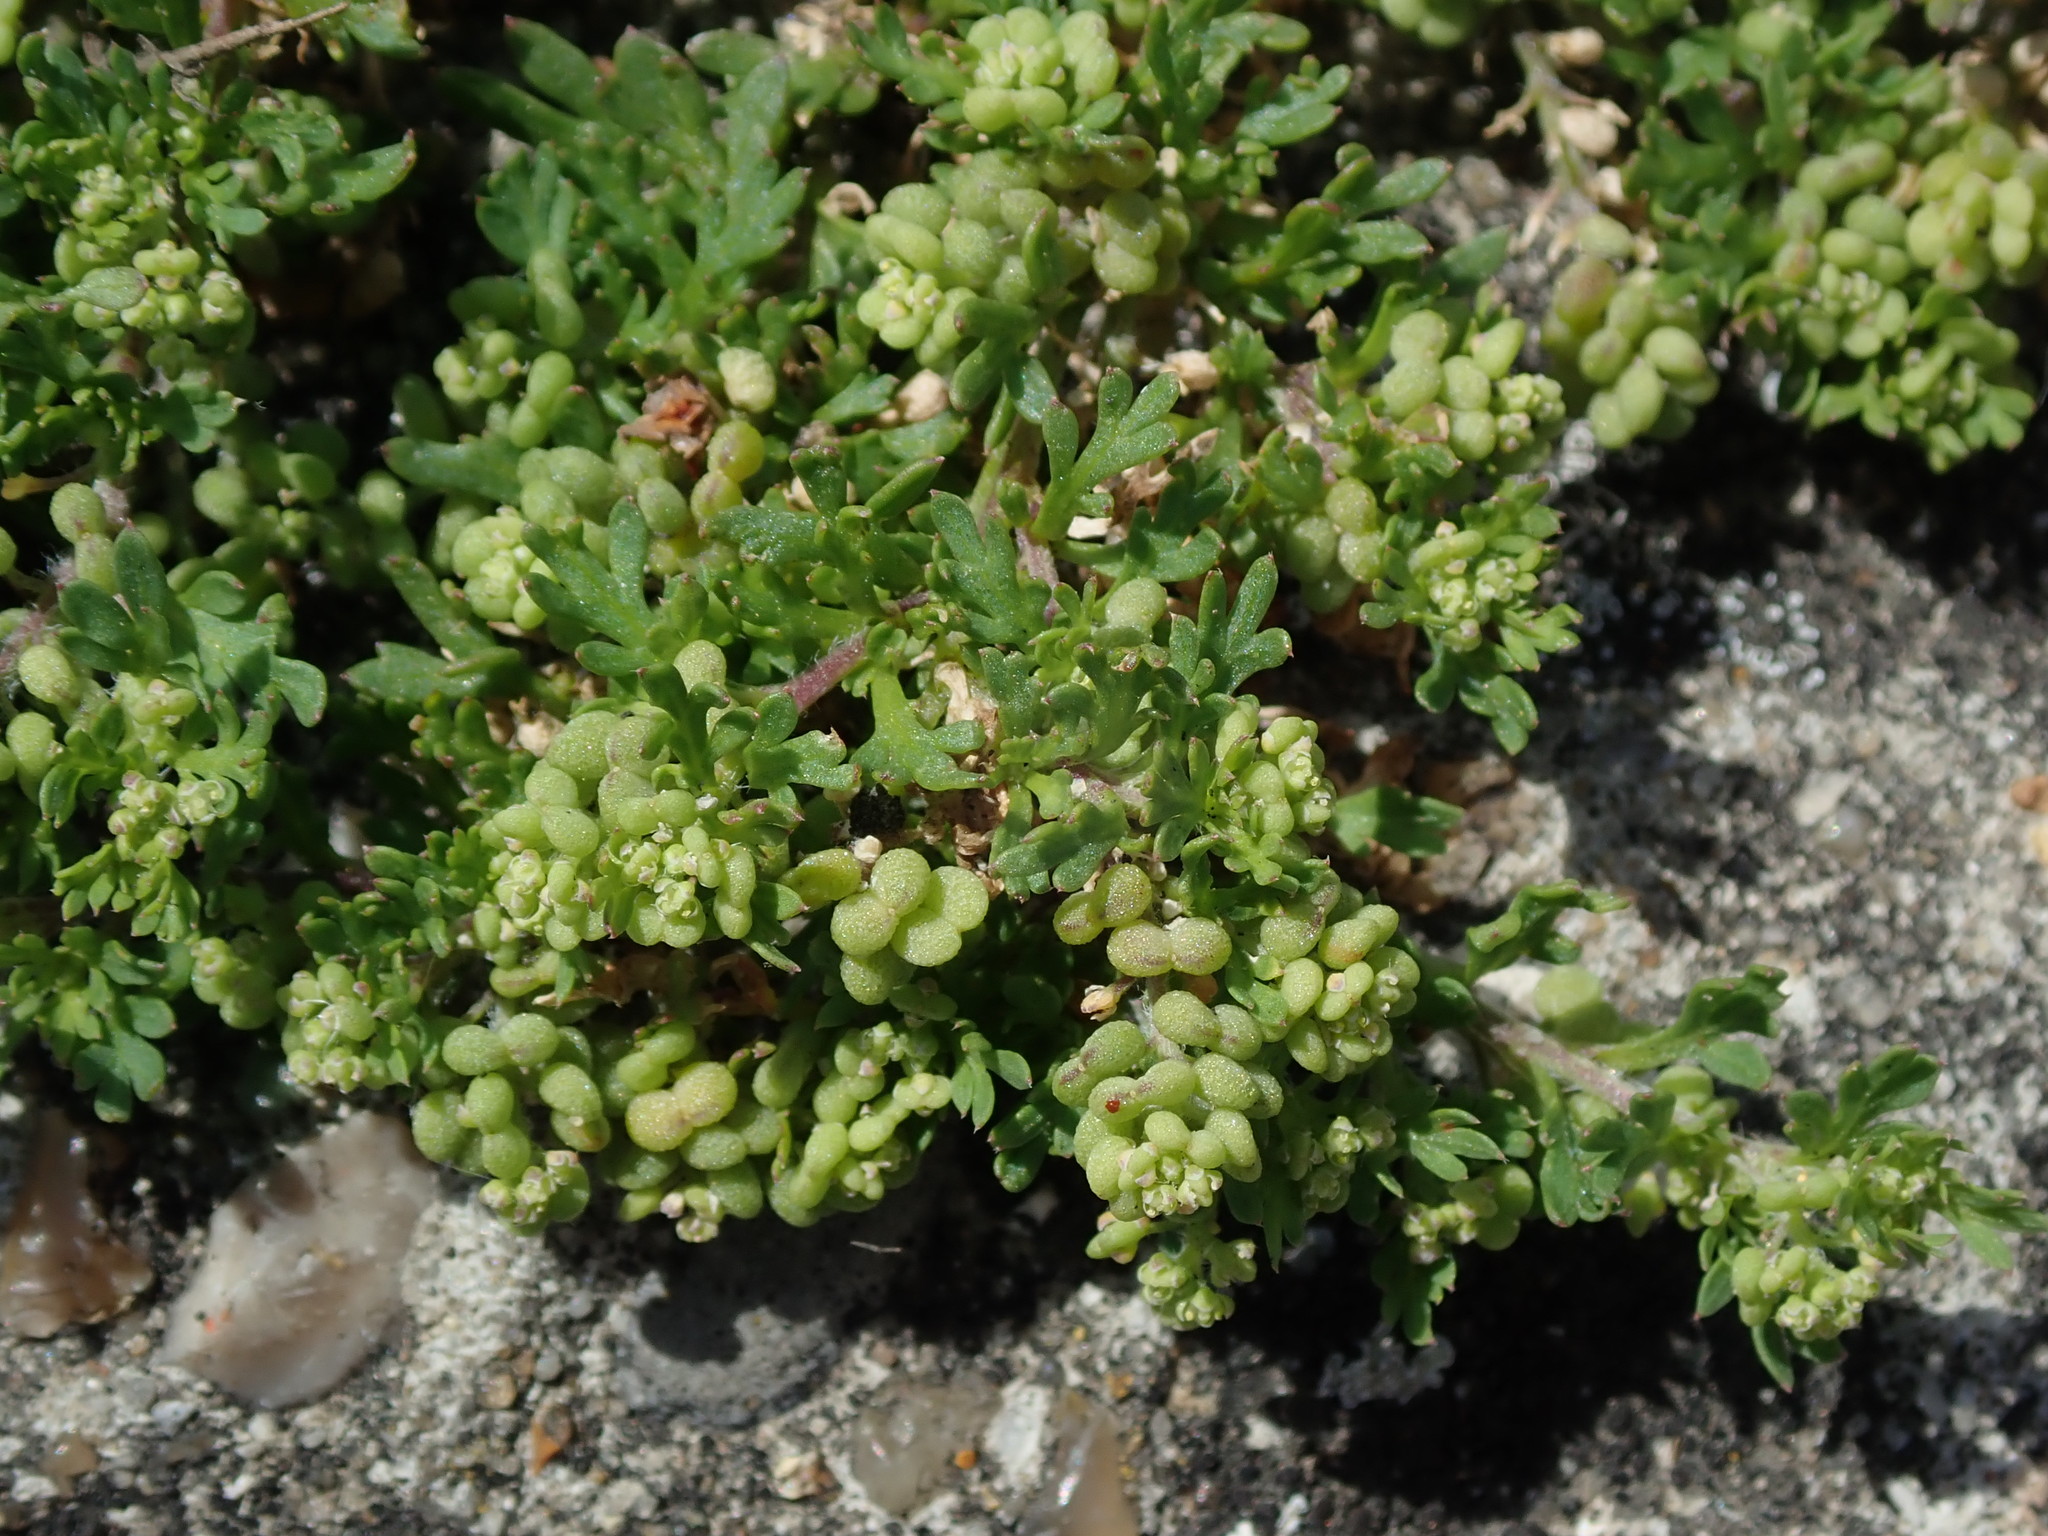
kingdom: Plantae
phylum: Tracheophyta
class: Magnoliopsida
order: Brassicales
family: Brassicaceae
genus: Lepidium
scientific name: Lepidium didymum
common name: Lesser swinecress
